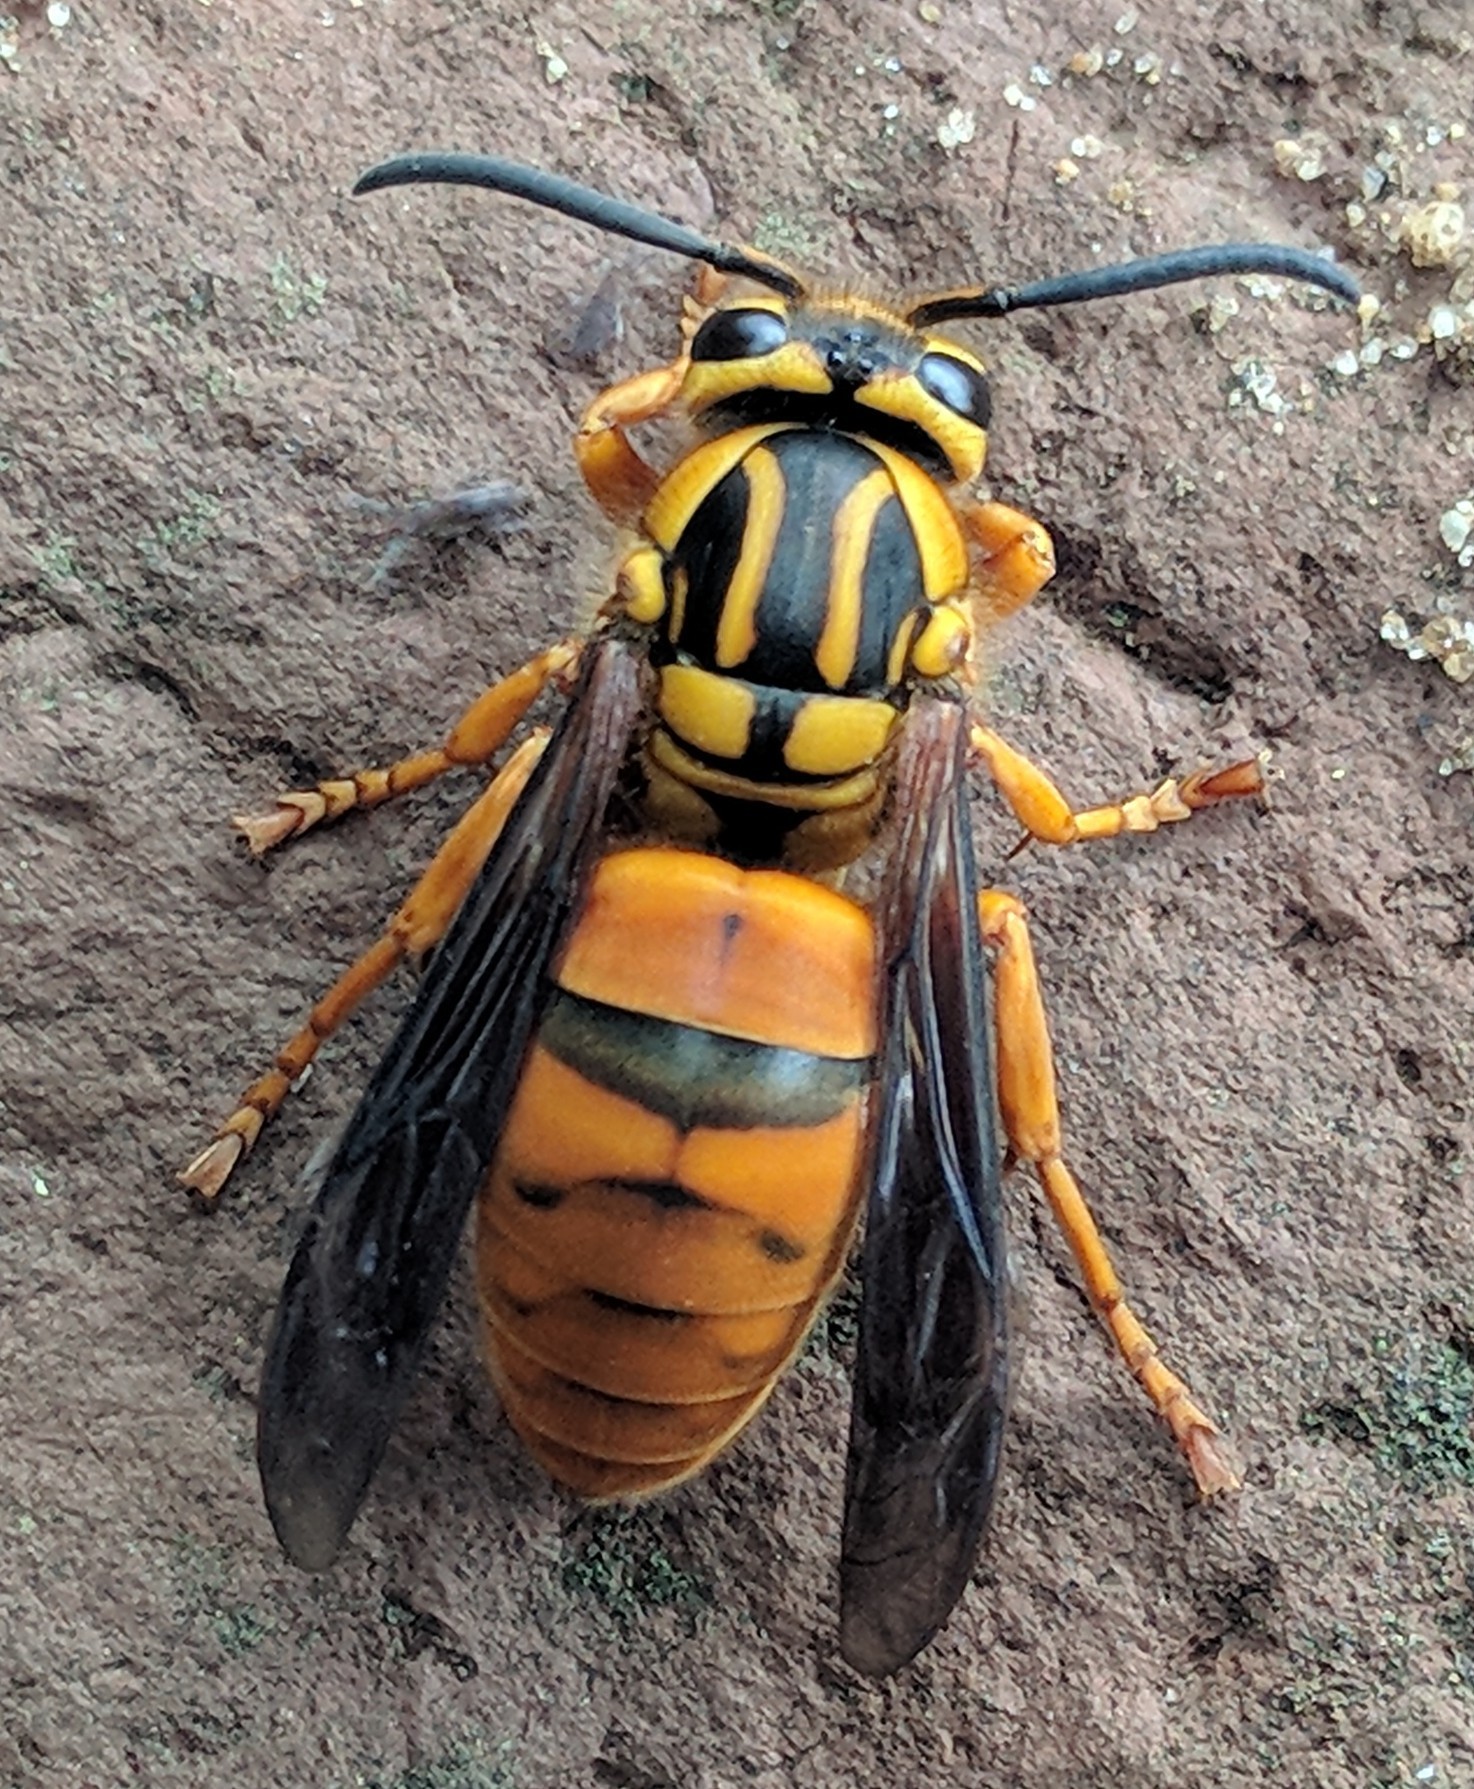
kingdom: Animalia
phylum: Arthropoda
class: Insecta
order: Hymenoptera
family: Vespidae
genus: Vespula
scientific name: Vespula squamosa
